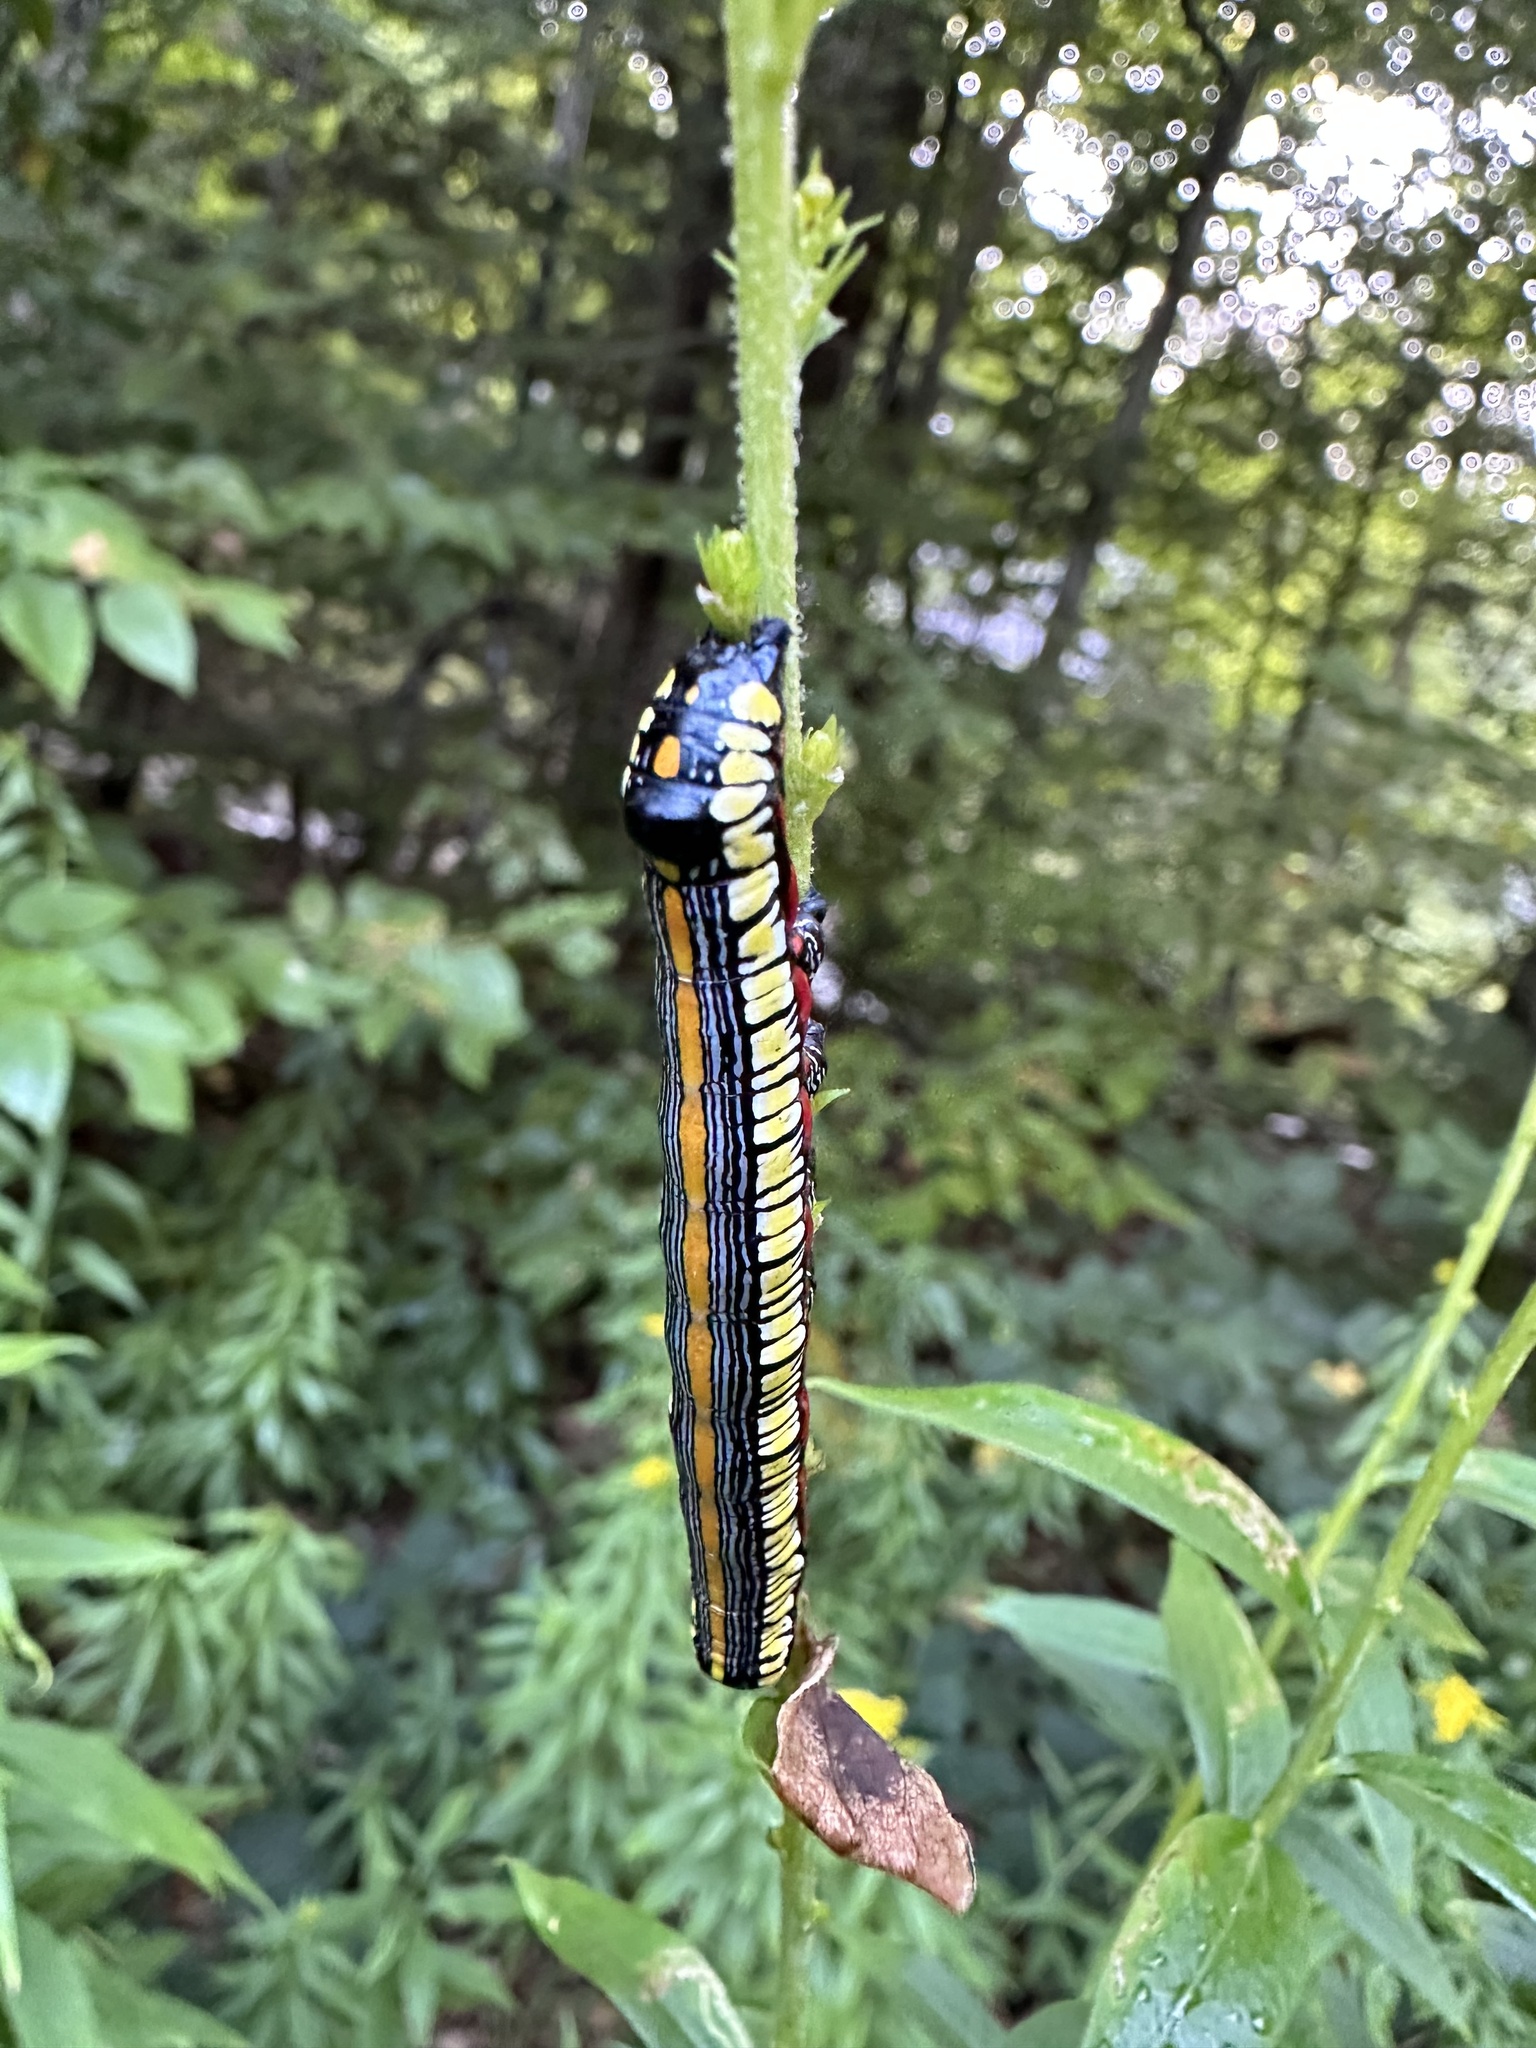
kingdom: Animalia
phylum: Arthropoda
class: Insecta
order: Lepidoptera
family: Noctuidae
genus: Cucullia
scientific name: Cucullia convexipennis
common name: Brown-hooded owlet
